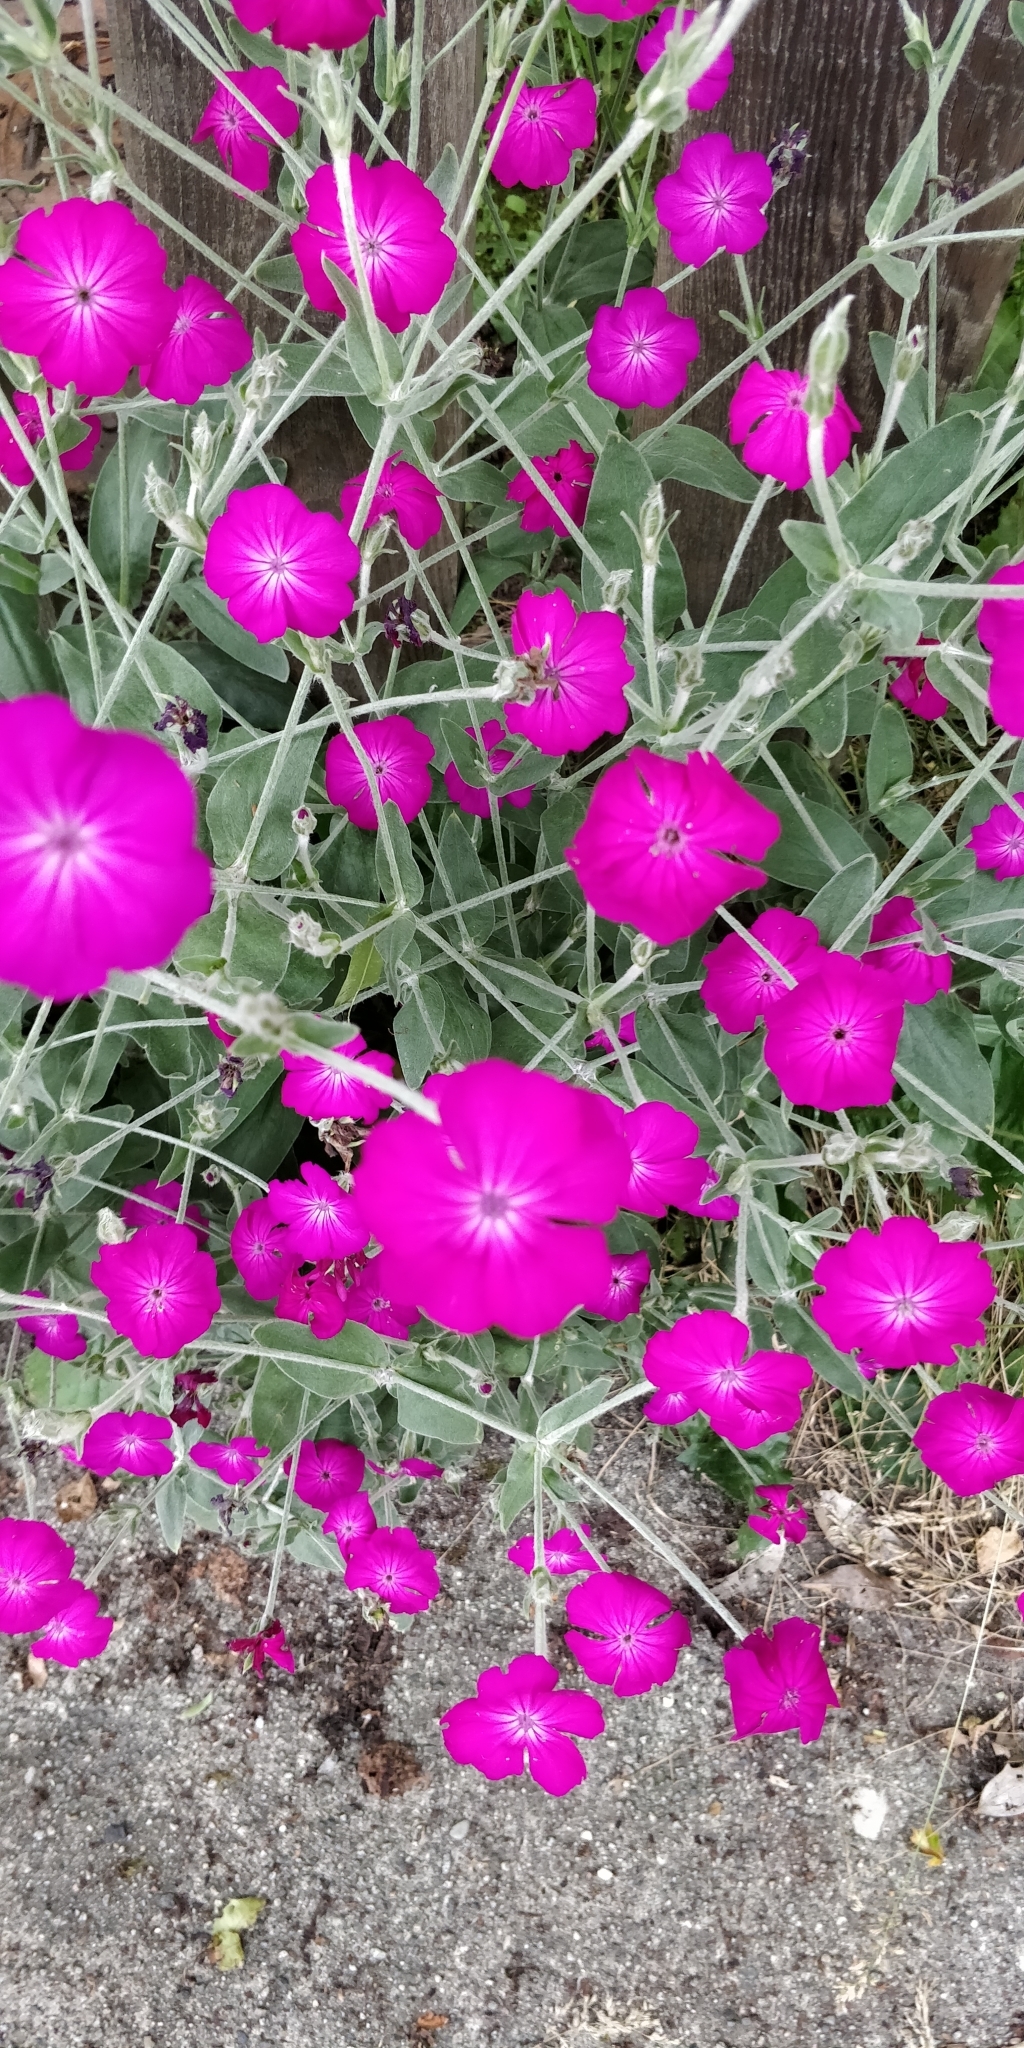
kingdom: Plantae
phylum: Tracheophyta
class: Magnoliopsida
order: Caryophyllales
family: Caryophyllaceae
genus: Silene
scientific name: Silene coronaria
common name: Rose campion
